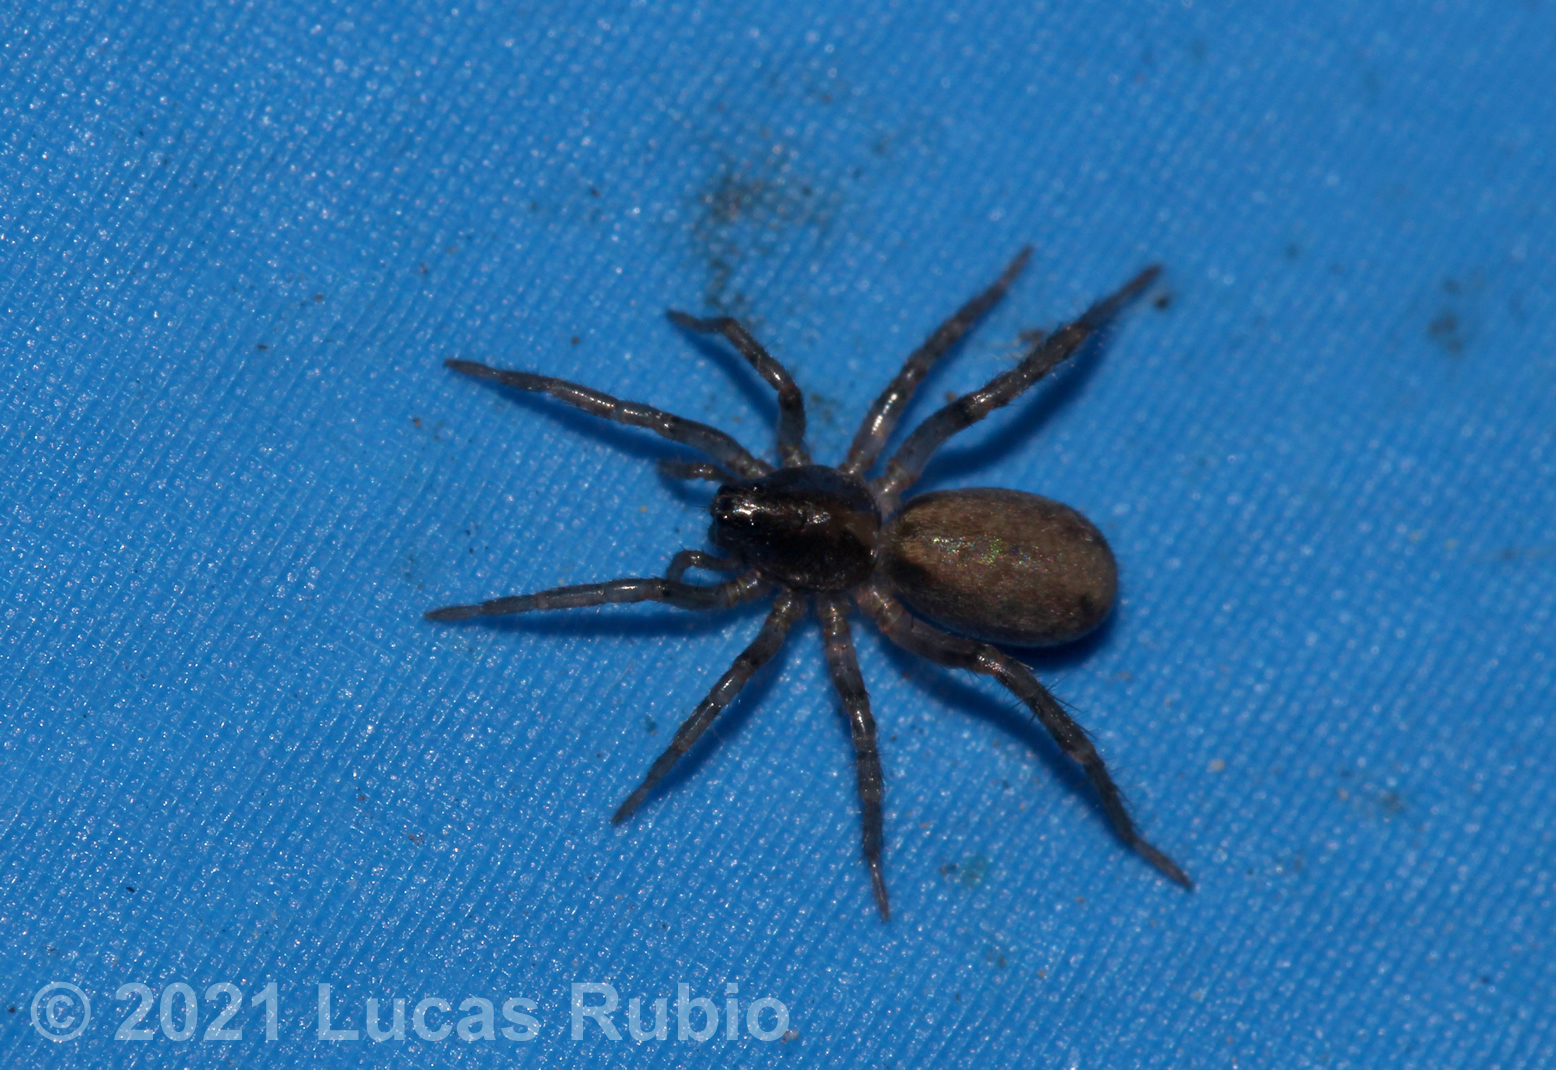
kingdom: Animalia
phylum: Arthropoda
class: Arachnida
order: Araneae
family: Lycosidae
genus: Abaycosa
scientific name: Abaycosa nanica
